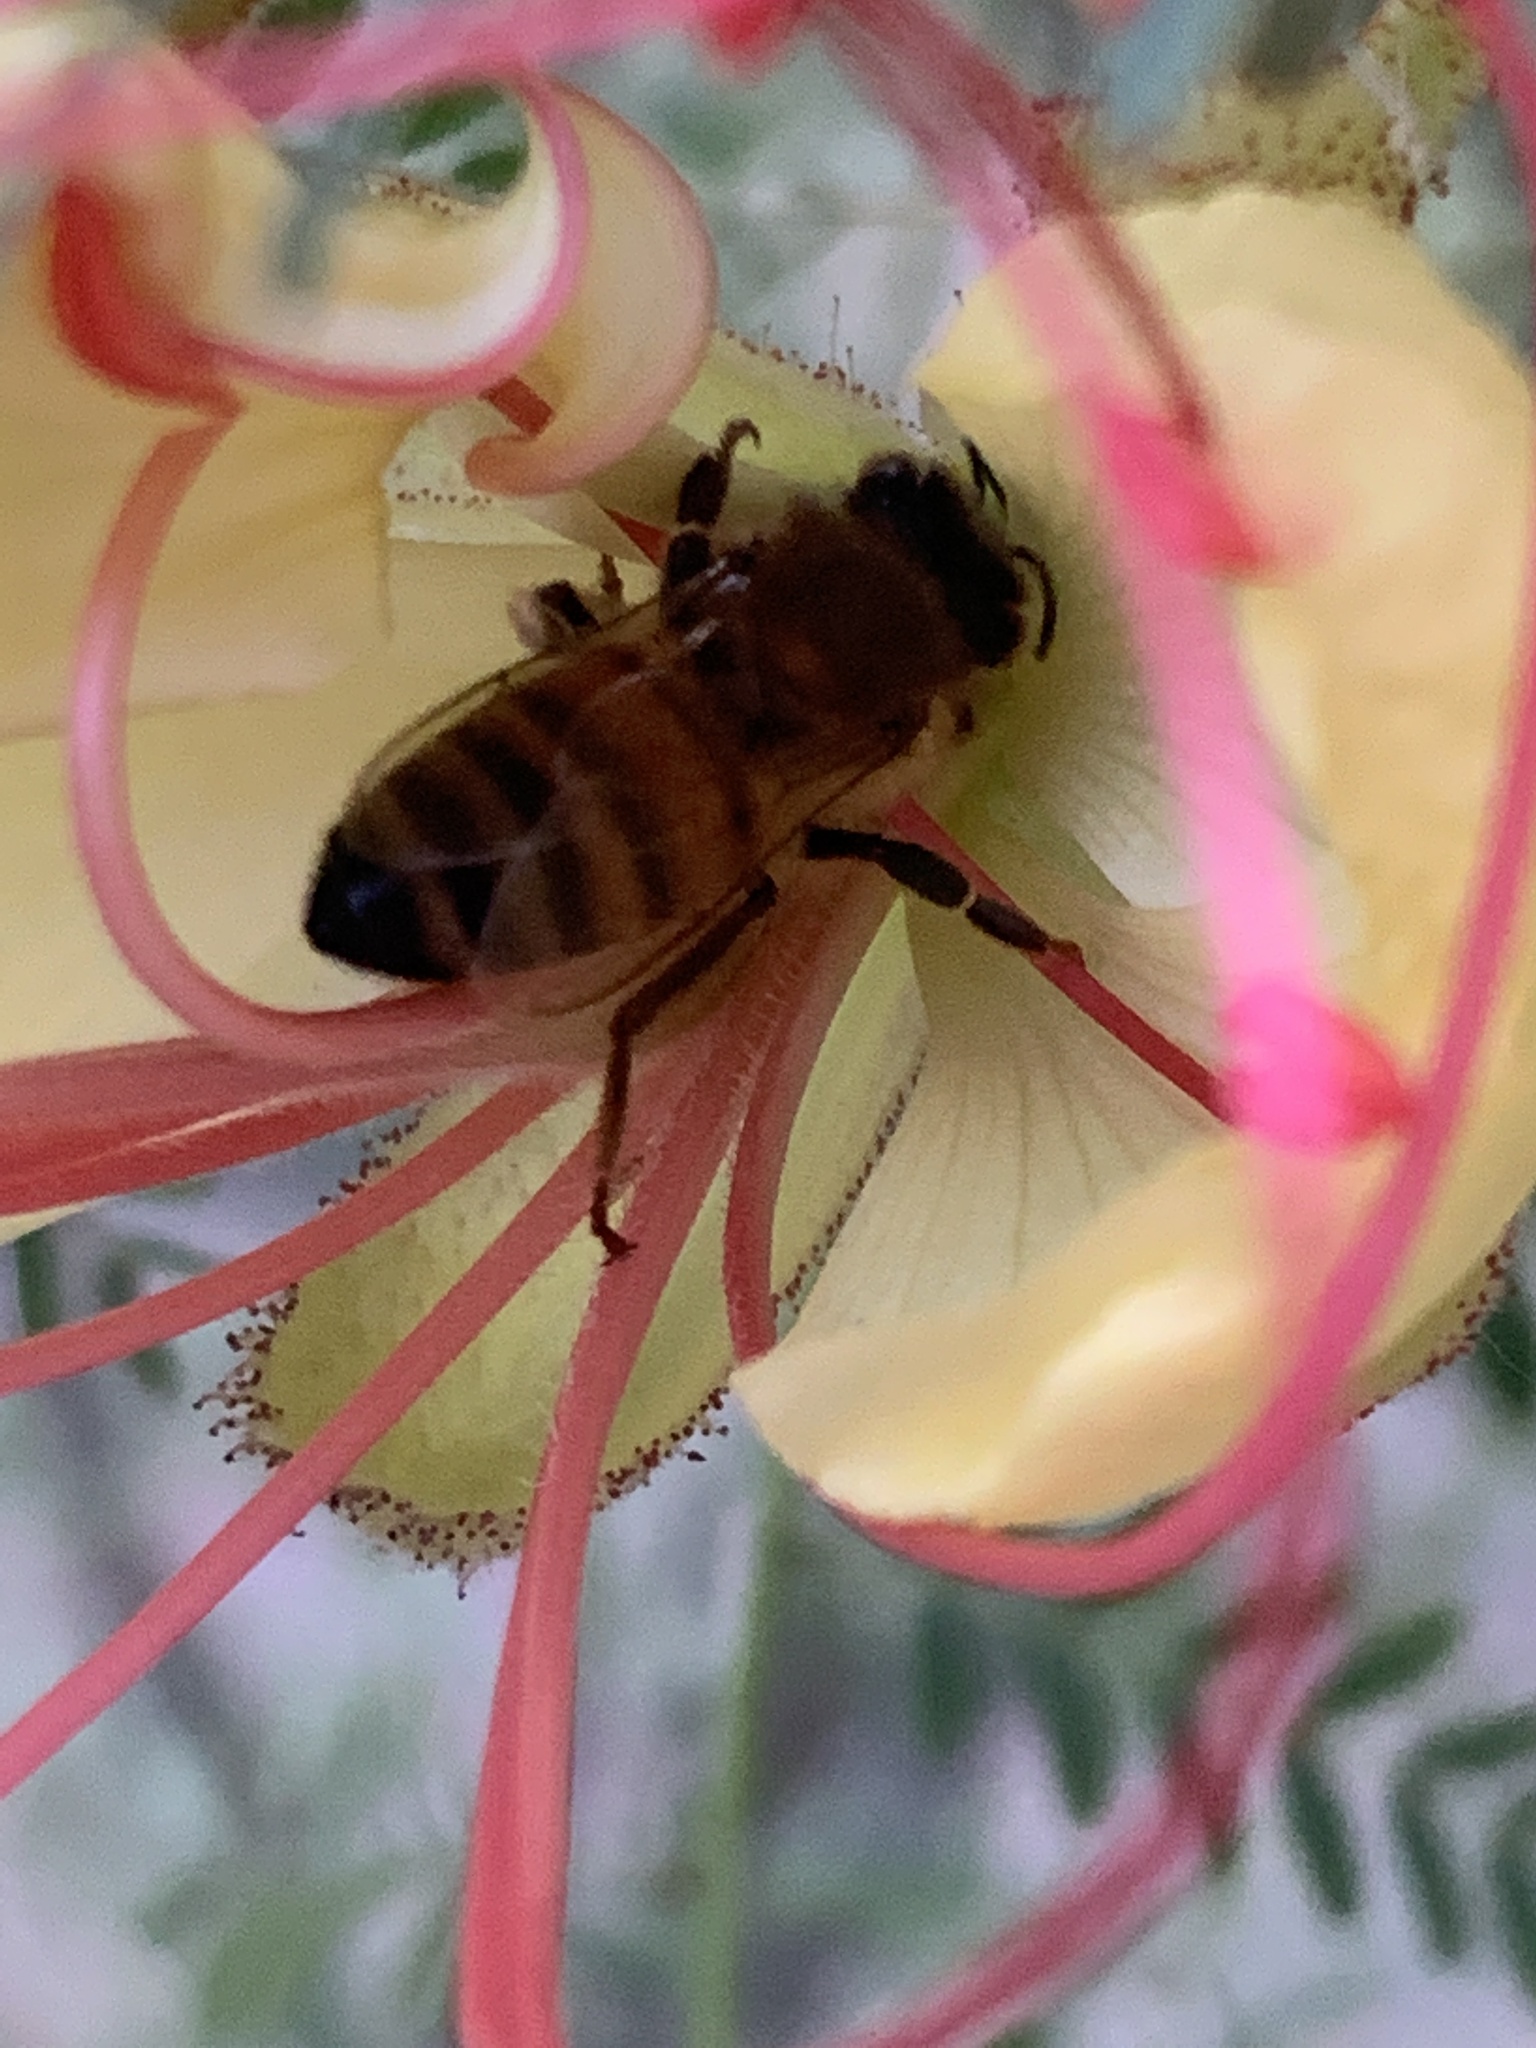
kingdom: Animalia
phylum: Arthropoda
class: Insecta
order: Hymenoptera
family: Apidae
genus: Apis
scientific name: Apis mellifera
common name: Honey bee
